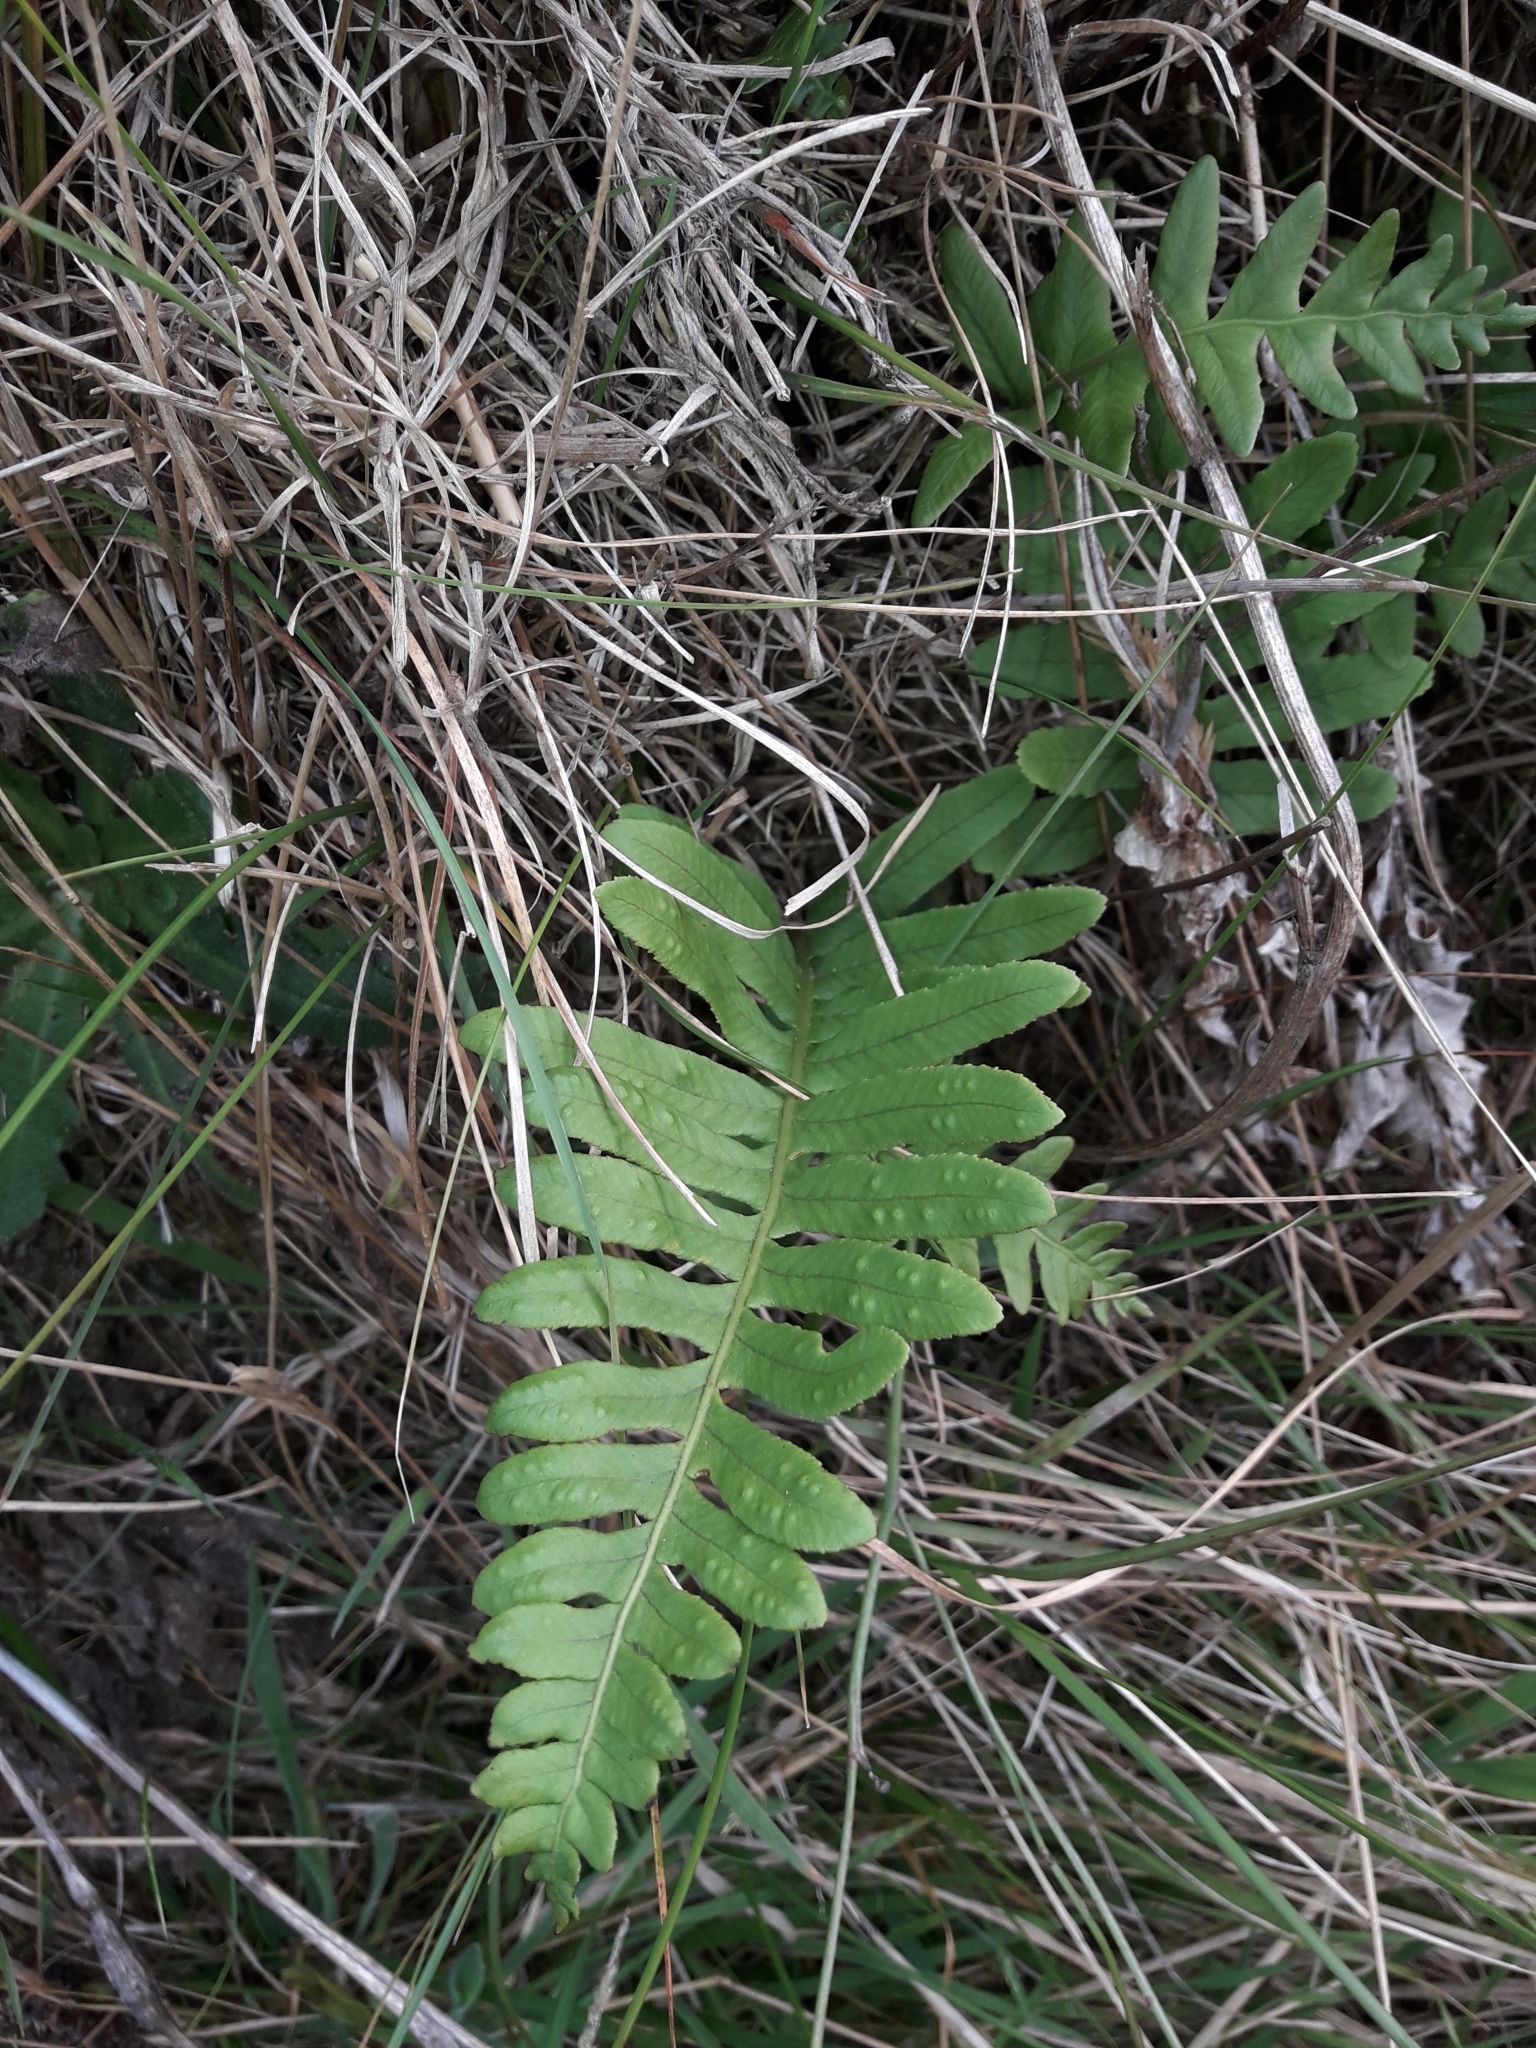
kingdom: Plantae
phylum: Tracheophyta
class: Polypodiopsida
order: Polypodiales
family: Polypodiaceae
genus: Polypodium
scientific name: Polypodium vulgare
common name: Common polypody
